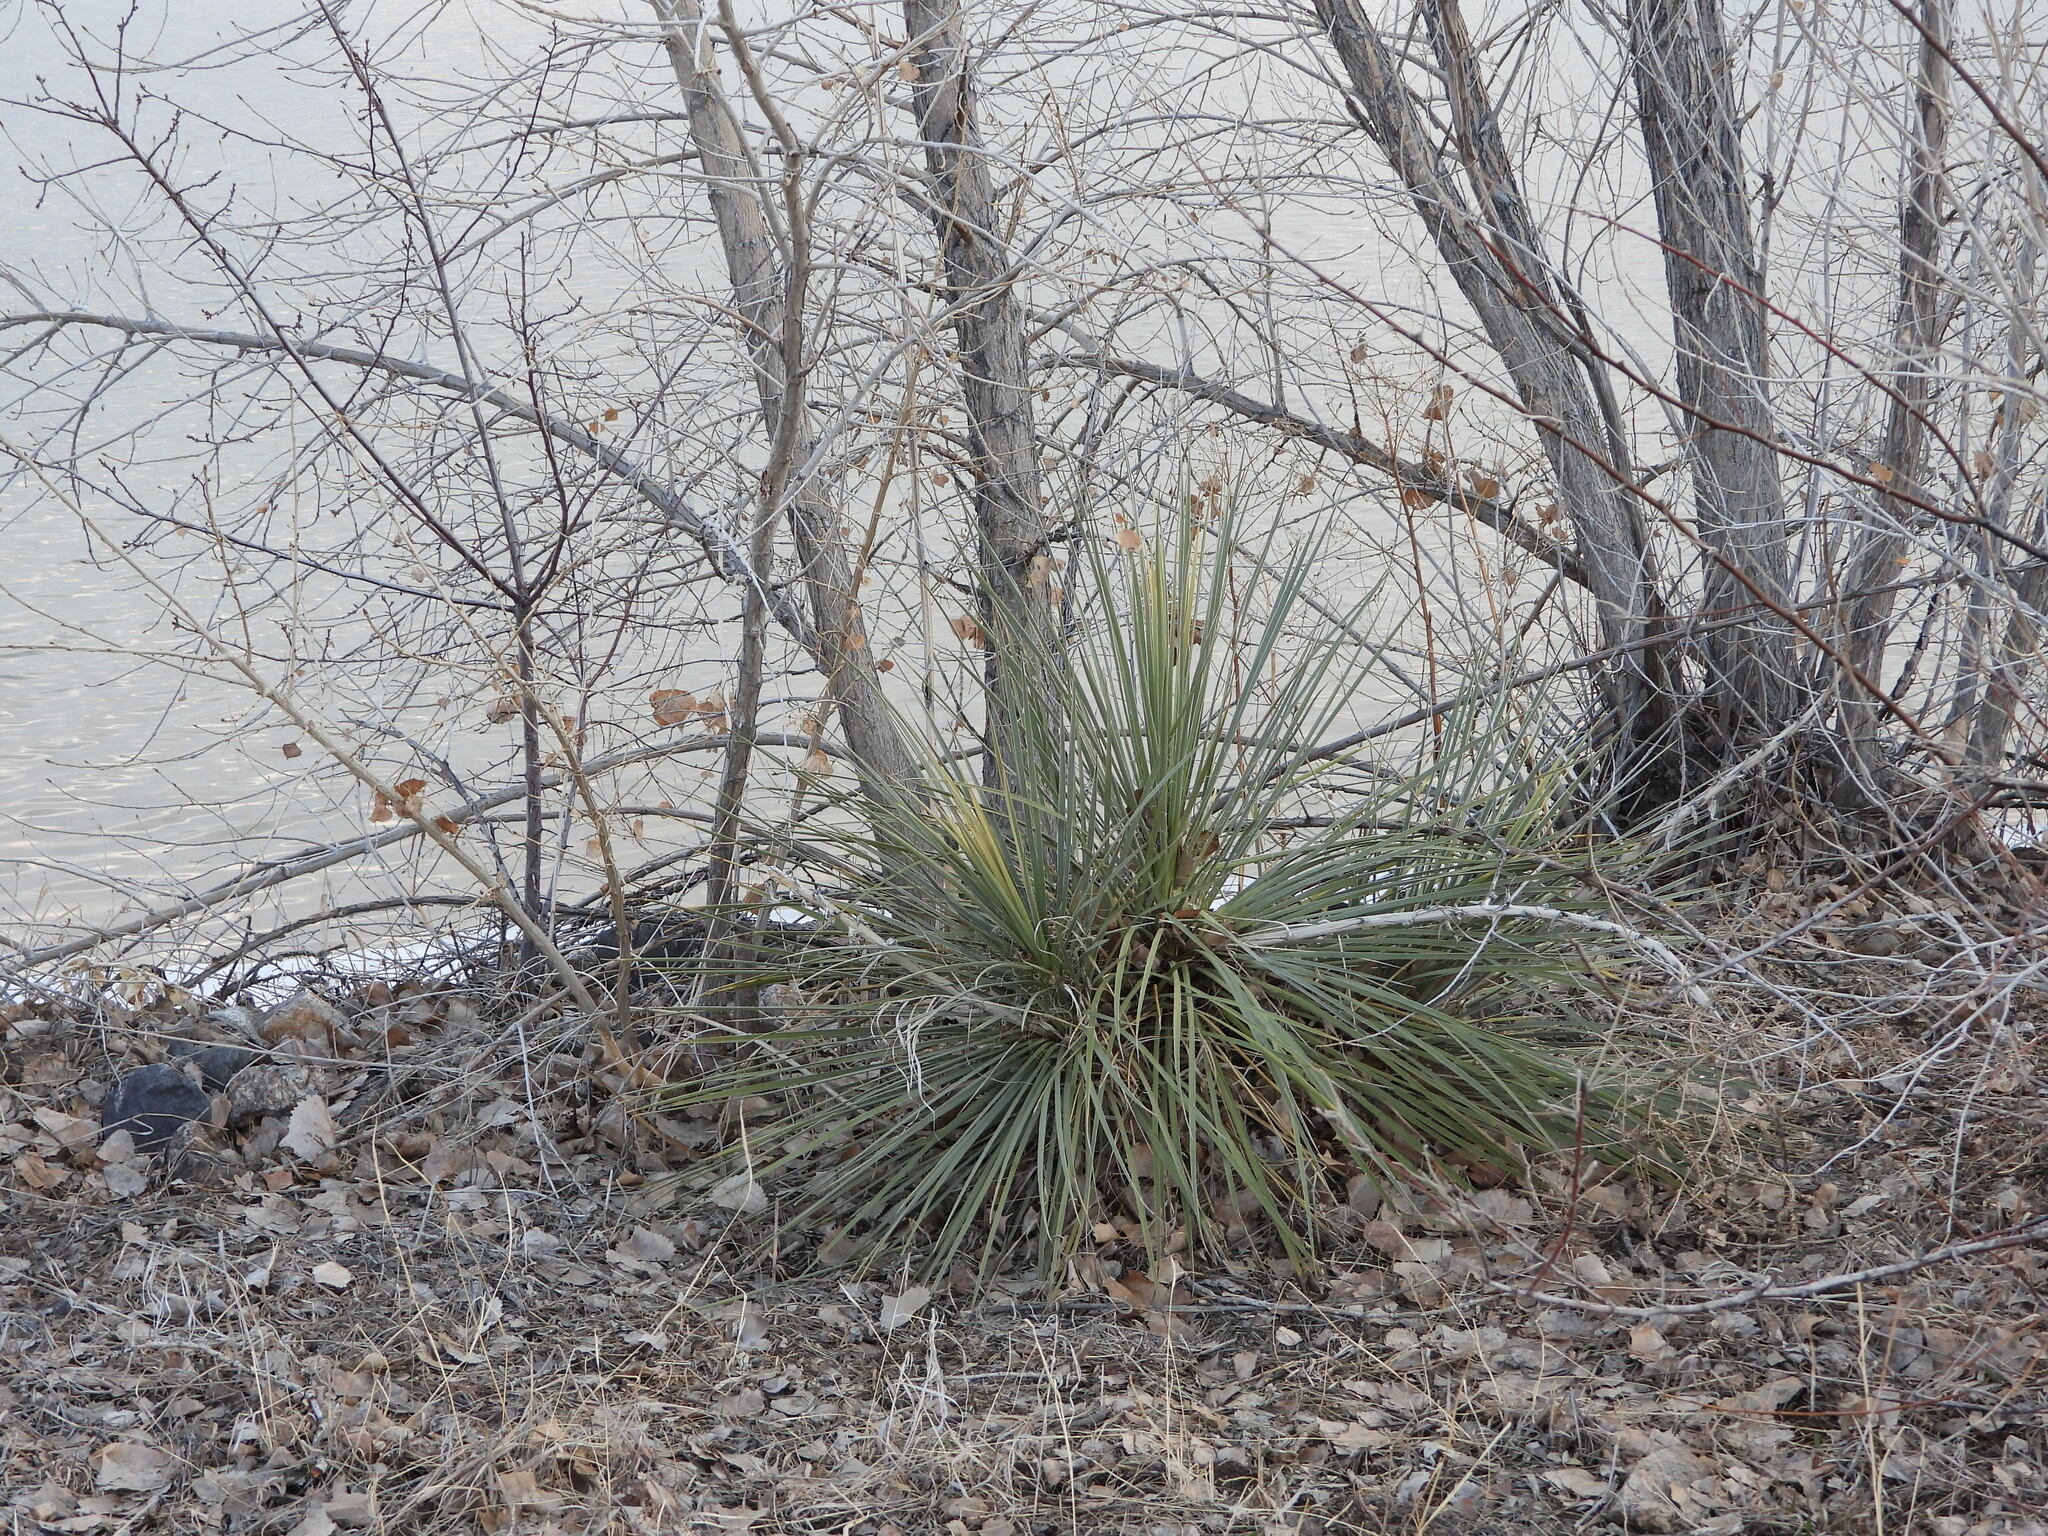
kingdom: Plantae
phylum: Tracheophyta
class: Liliopsida
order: Asparagales
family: Asparagaceae
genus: Yucca
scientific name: Yucca glauca
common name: Great plains yucca
